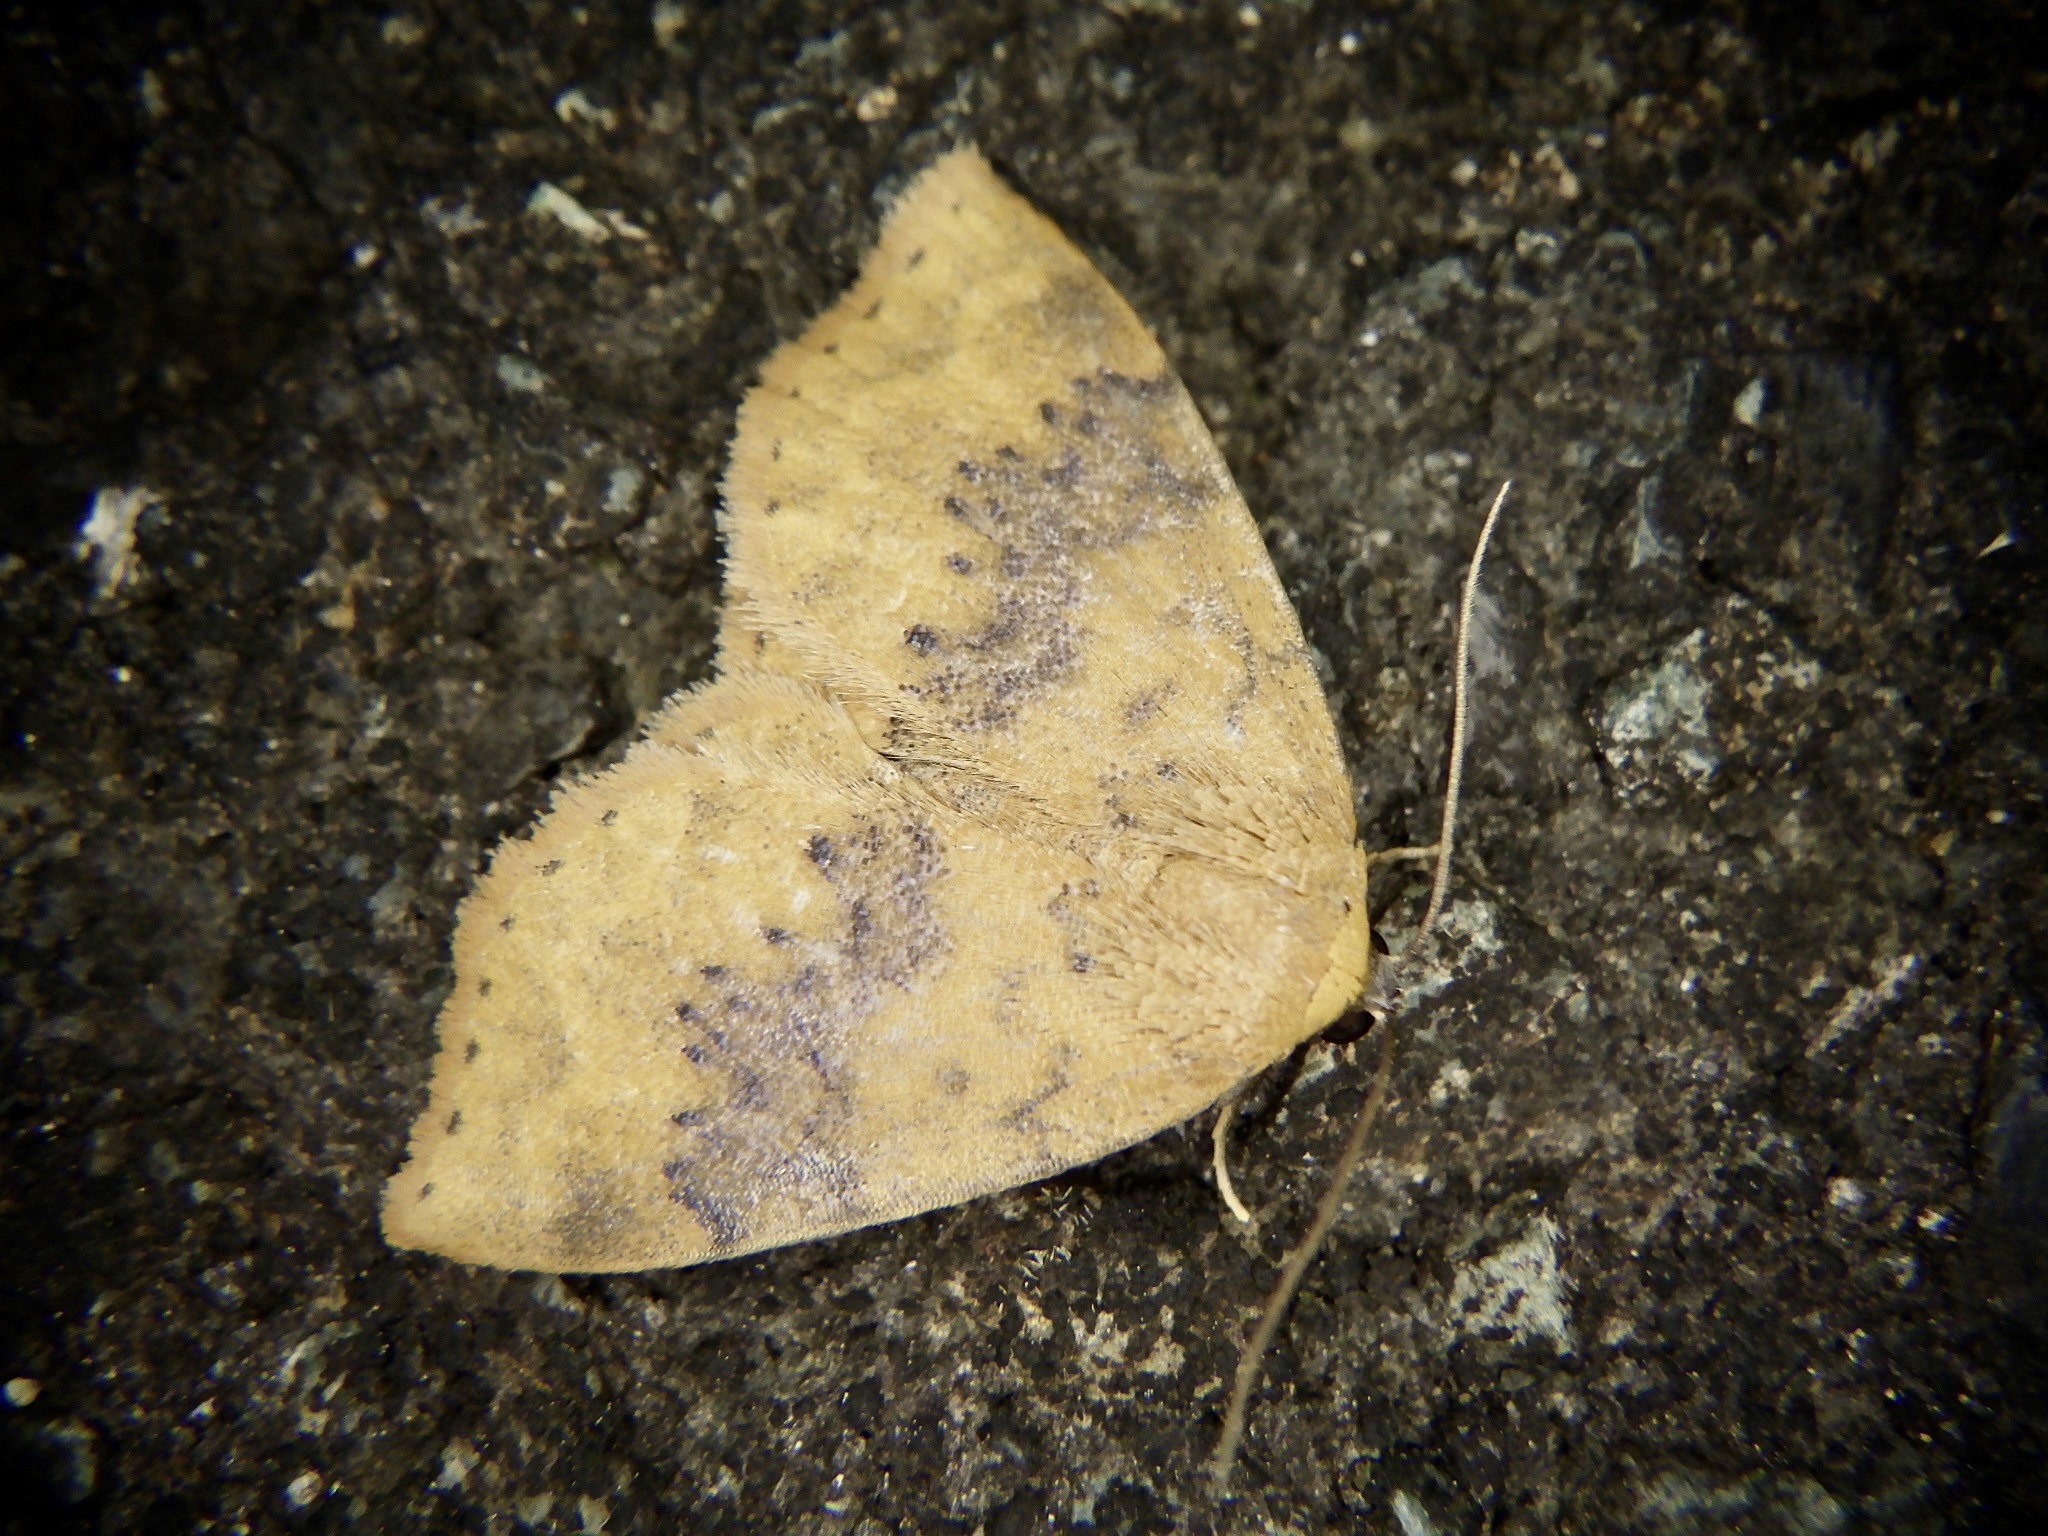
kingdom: Animalia
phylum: Arthropoda
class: Insecta
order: Lepidoptera
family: Noctuidae
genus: Oruza
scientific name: Oruza brunnea
